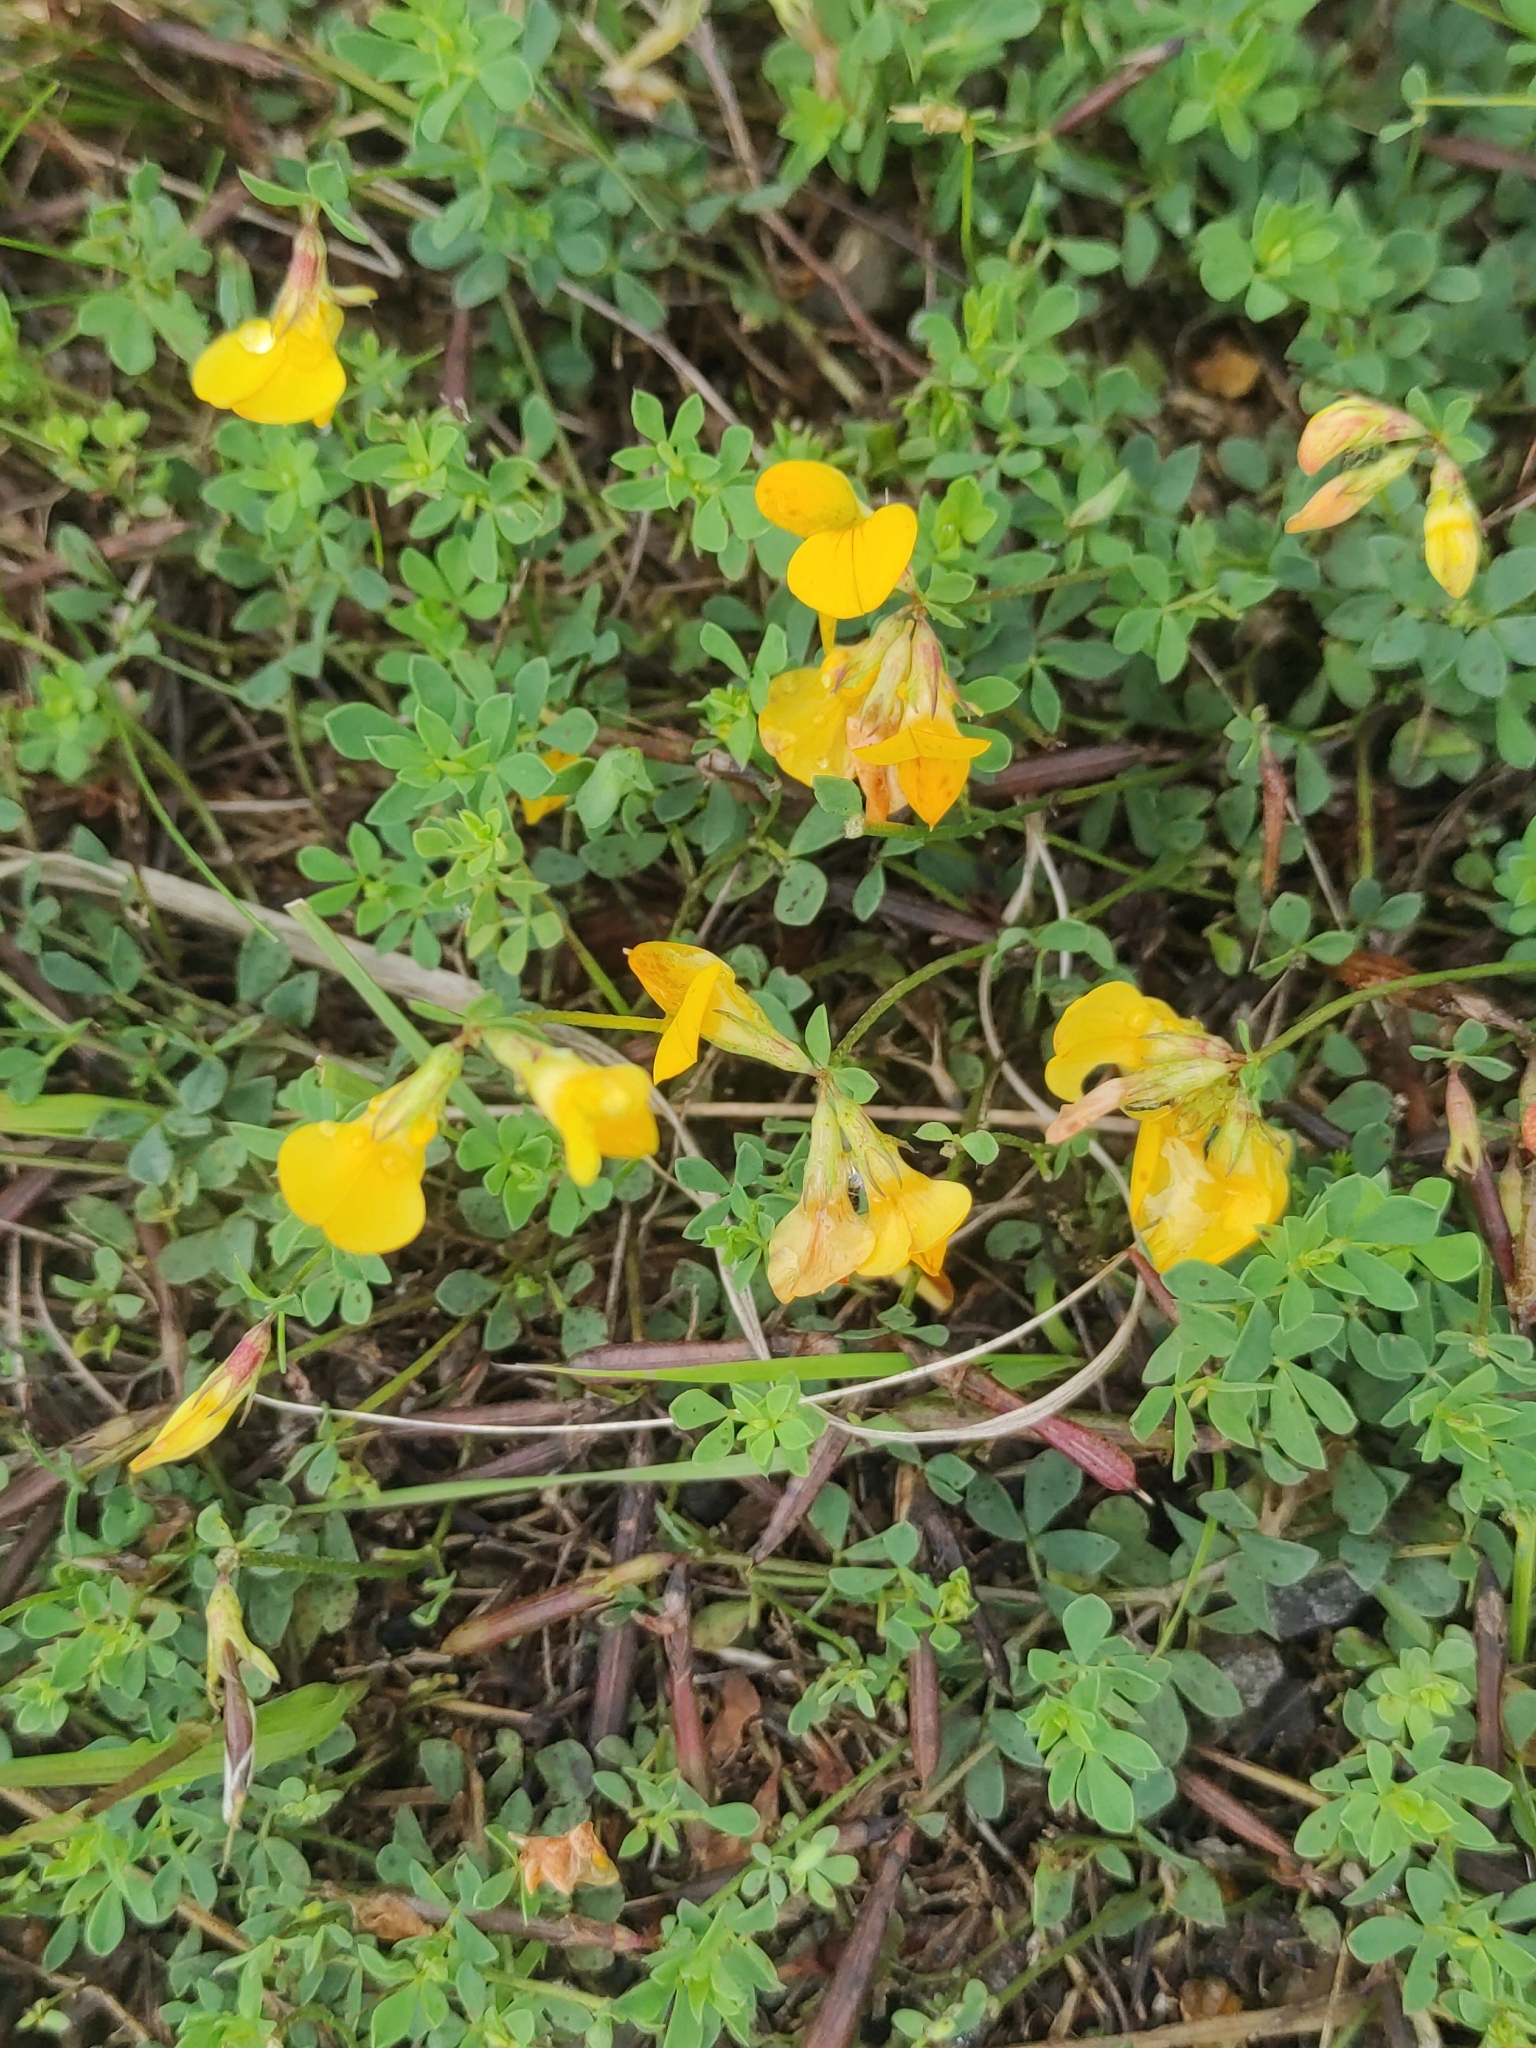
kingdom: Plantae
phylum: Tracheophyta
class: Magnoliopsida
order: Fabales
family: Fabaceae
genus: Lotus
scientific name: Lotus corniculatus
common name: Common bird's-foot-trefoil
